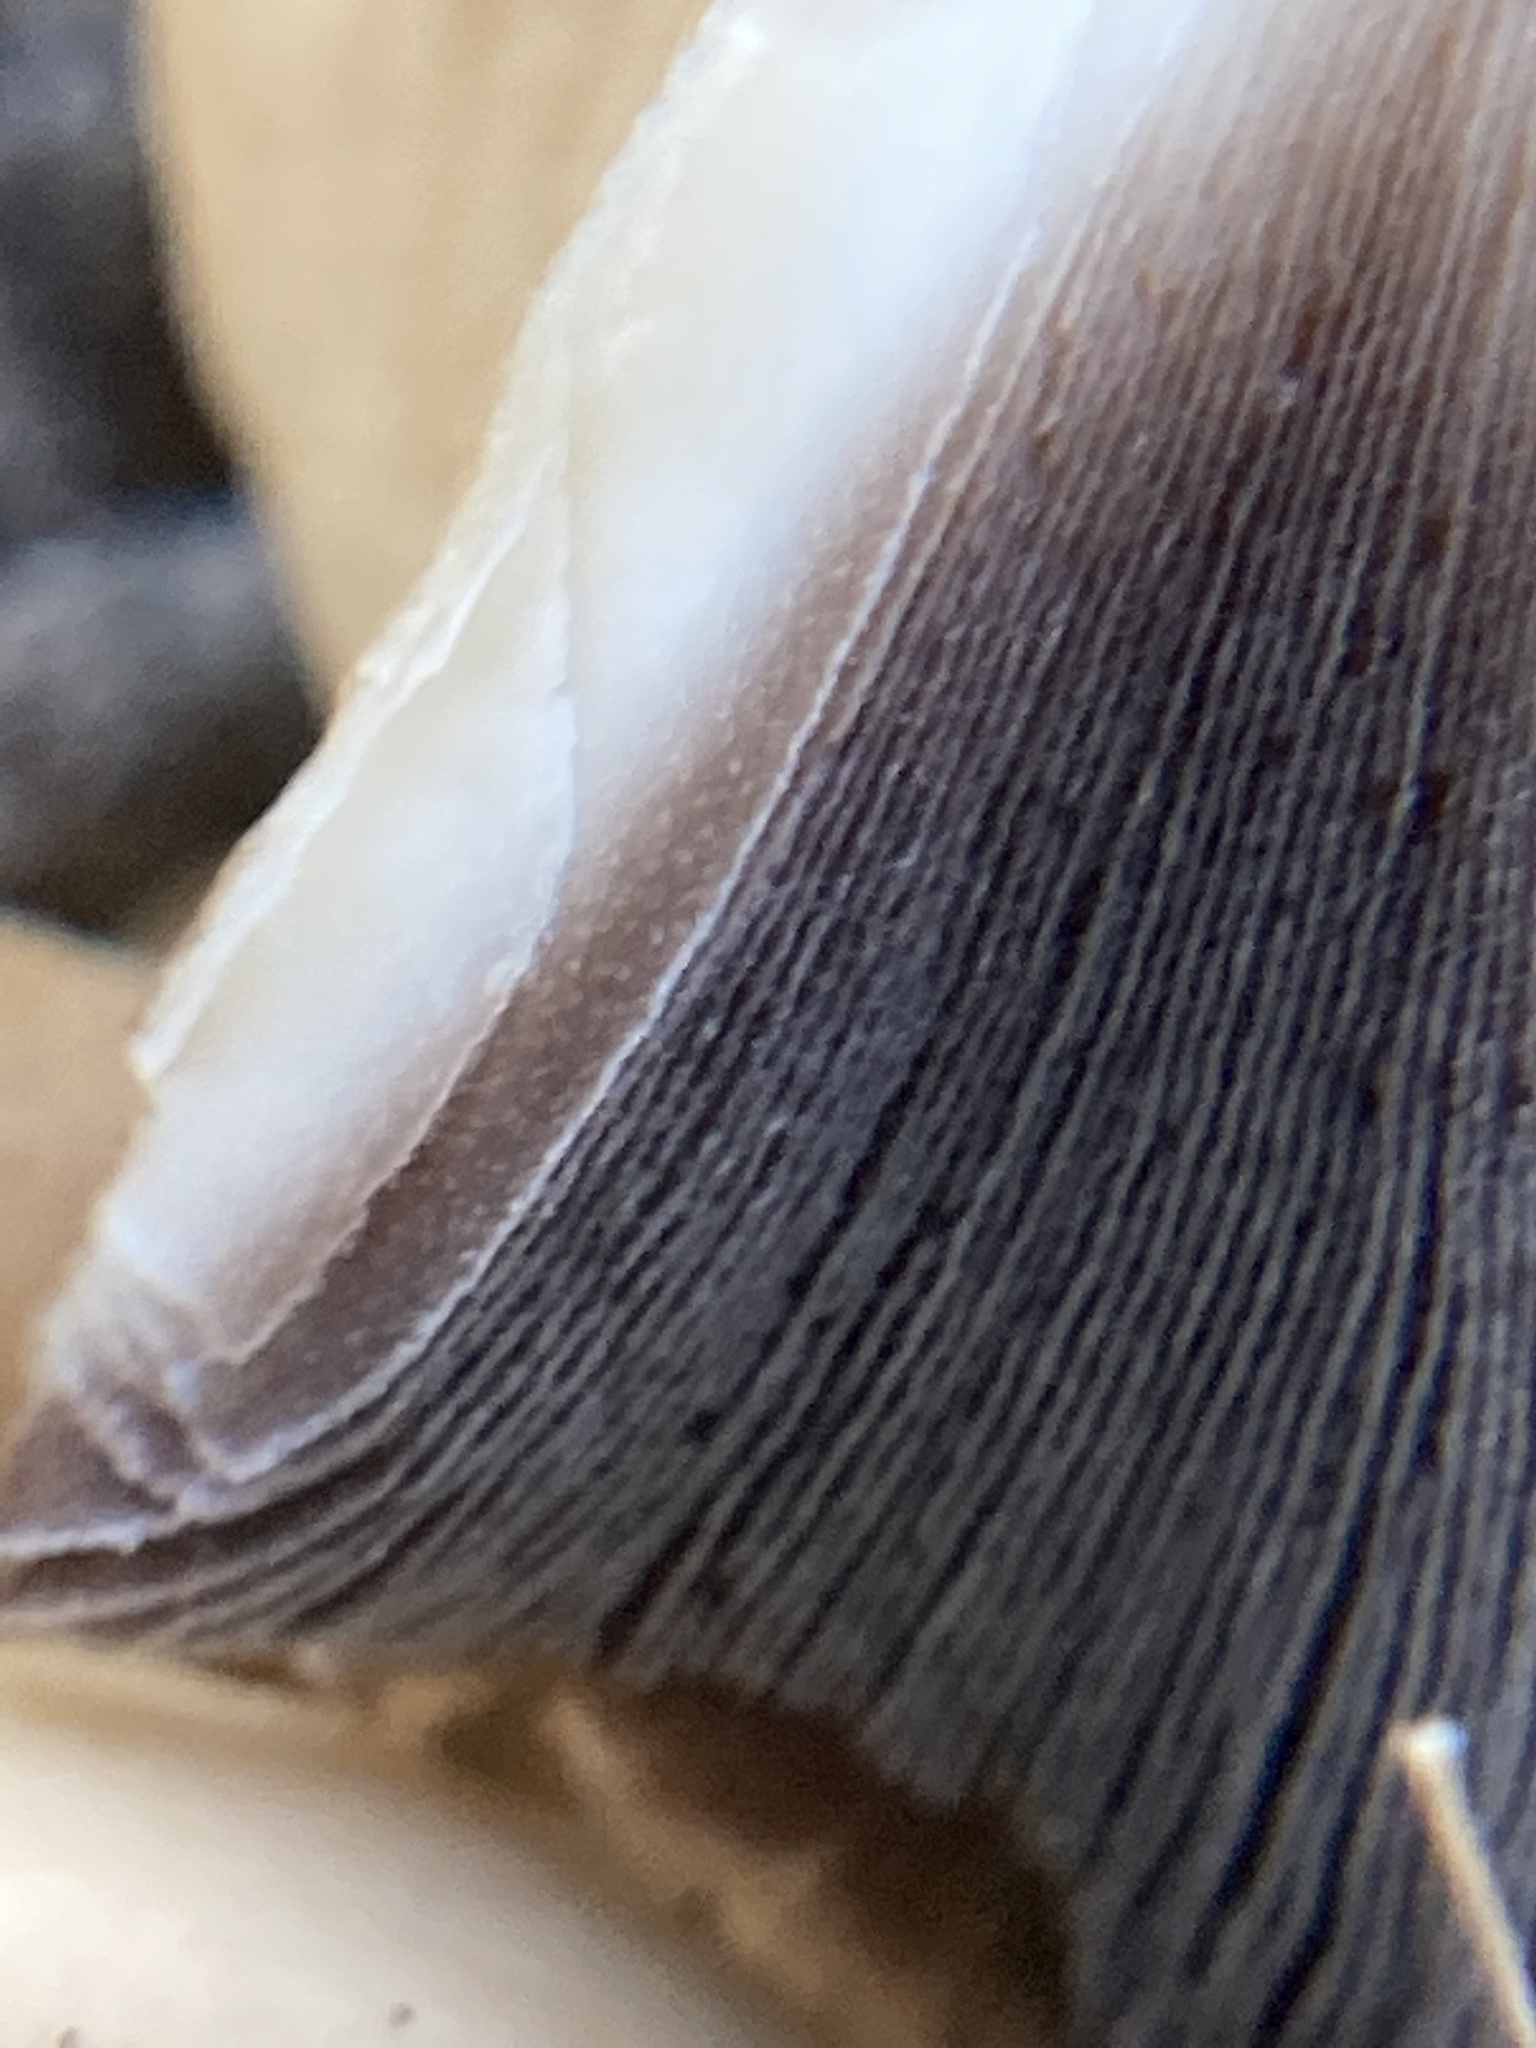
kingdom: Fungi
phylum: Basidiomycota
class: Agaricomycetes
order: Agaricales
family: Psathyrellaceae
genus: Coprinopsis
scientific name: Coprinopsis atramentaria
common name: Common ink-cap
